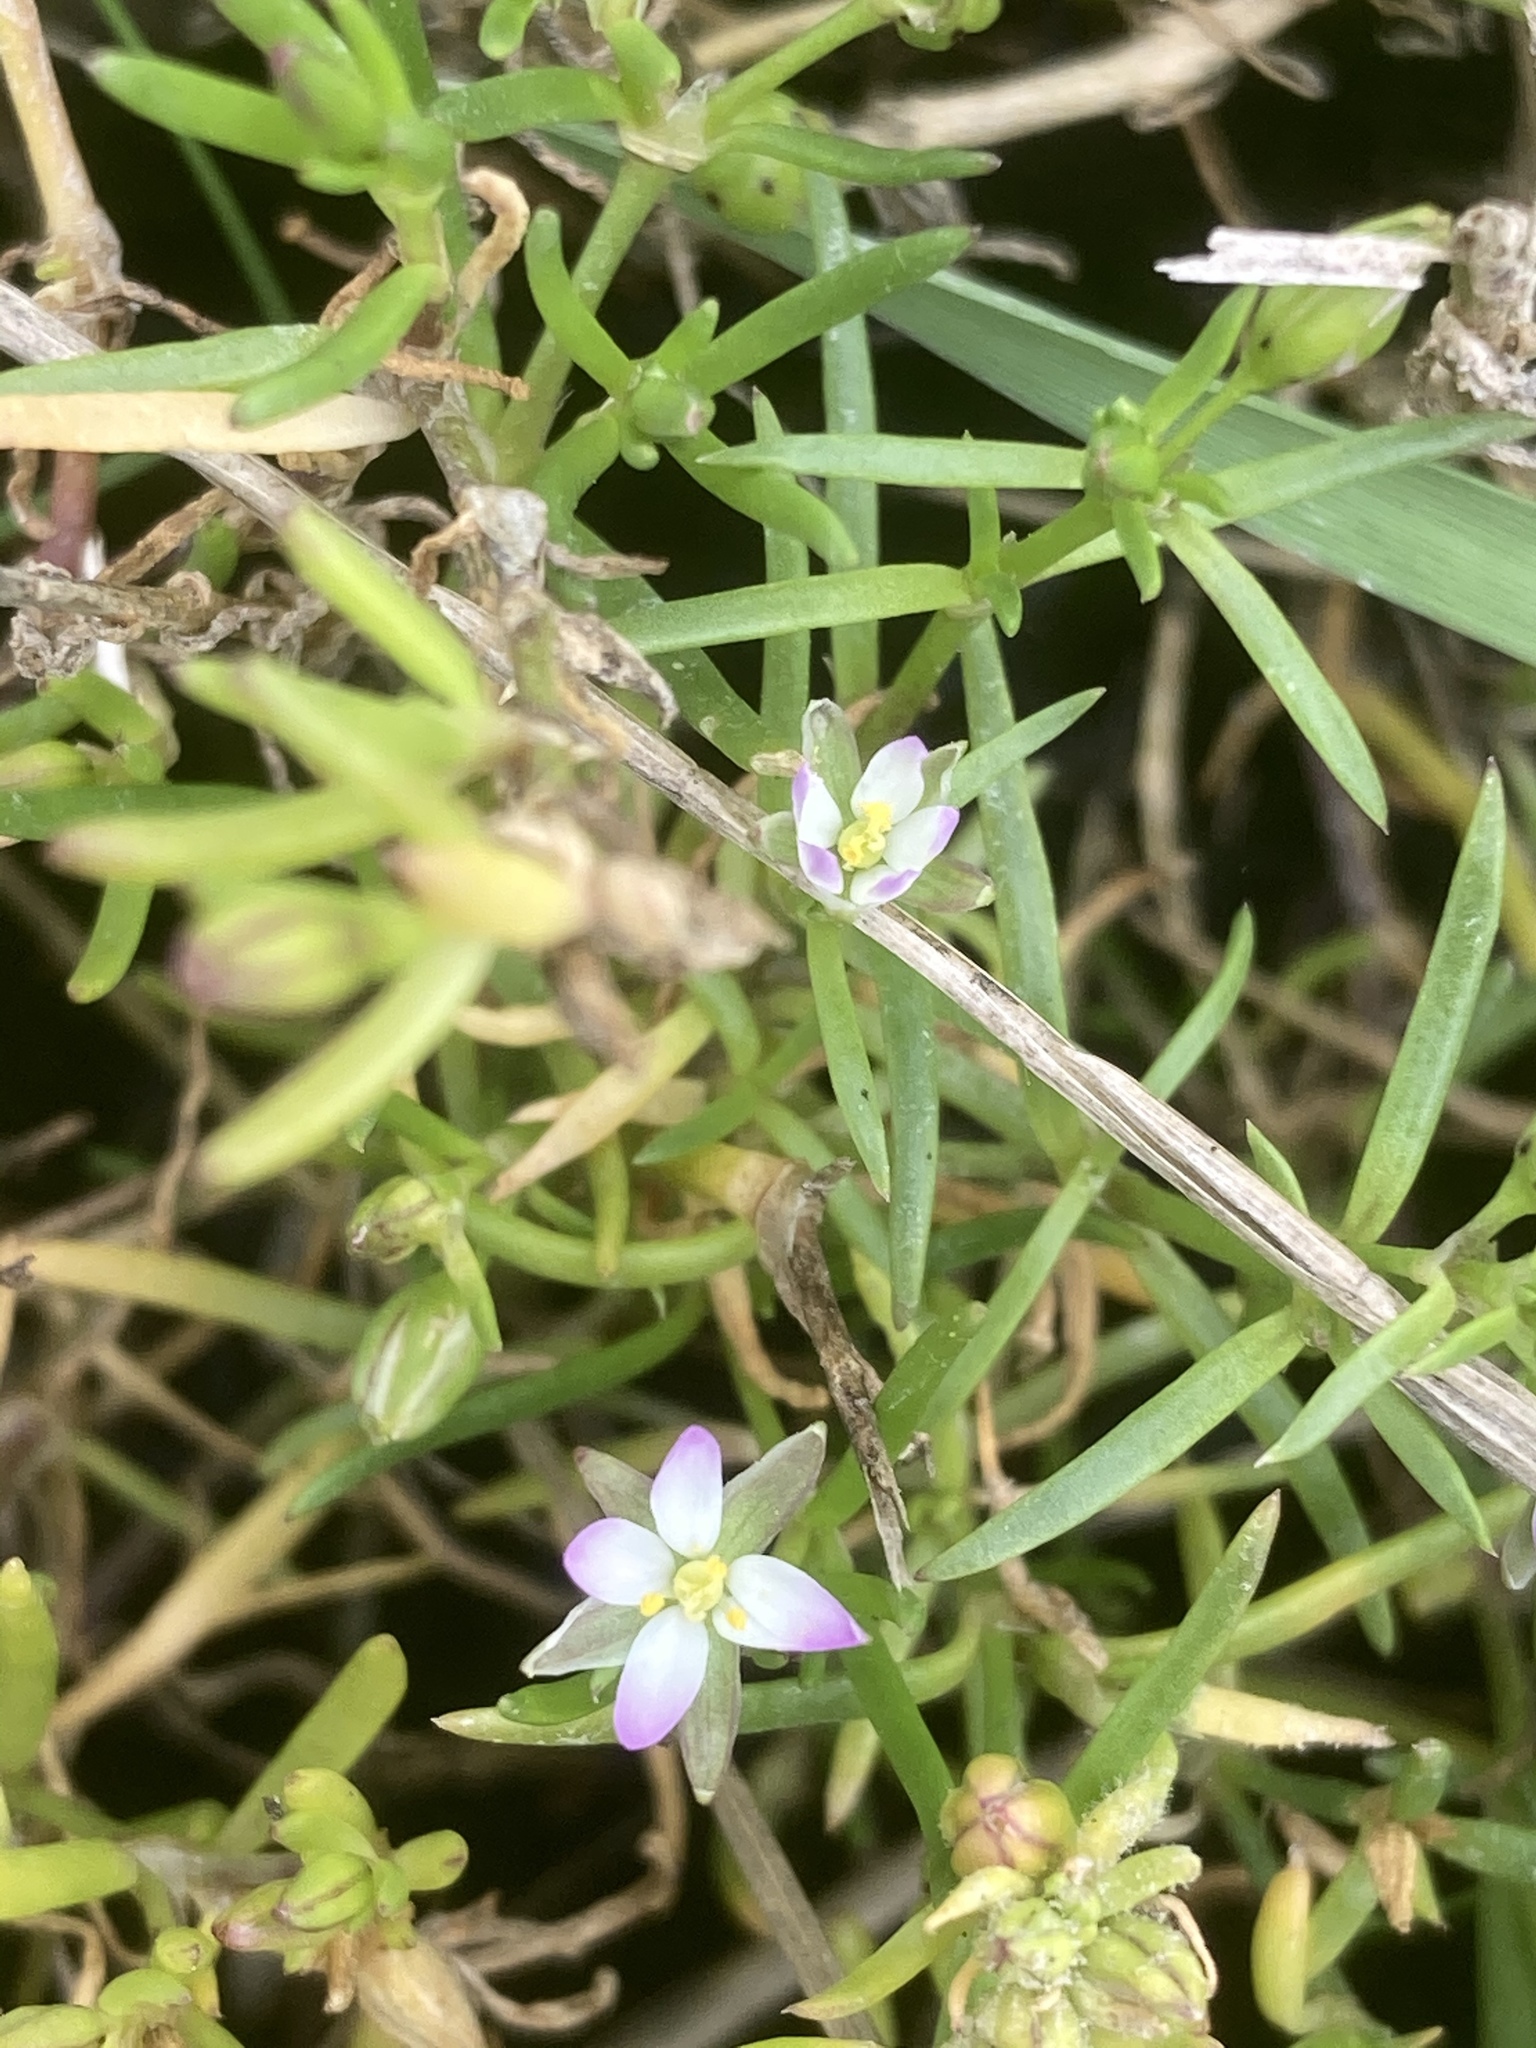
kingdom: Plantae
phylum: Tracheophyta
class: Magnoliopsida
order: Caryophyllales
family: Caryophyllaceae
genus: Spergularia
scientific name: Spergularia marina
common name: Lesser sea-spurrey
